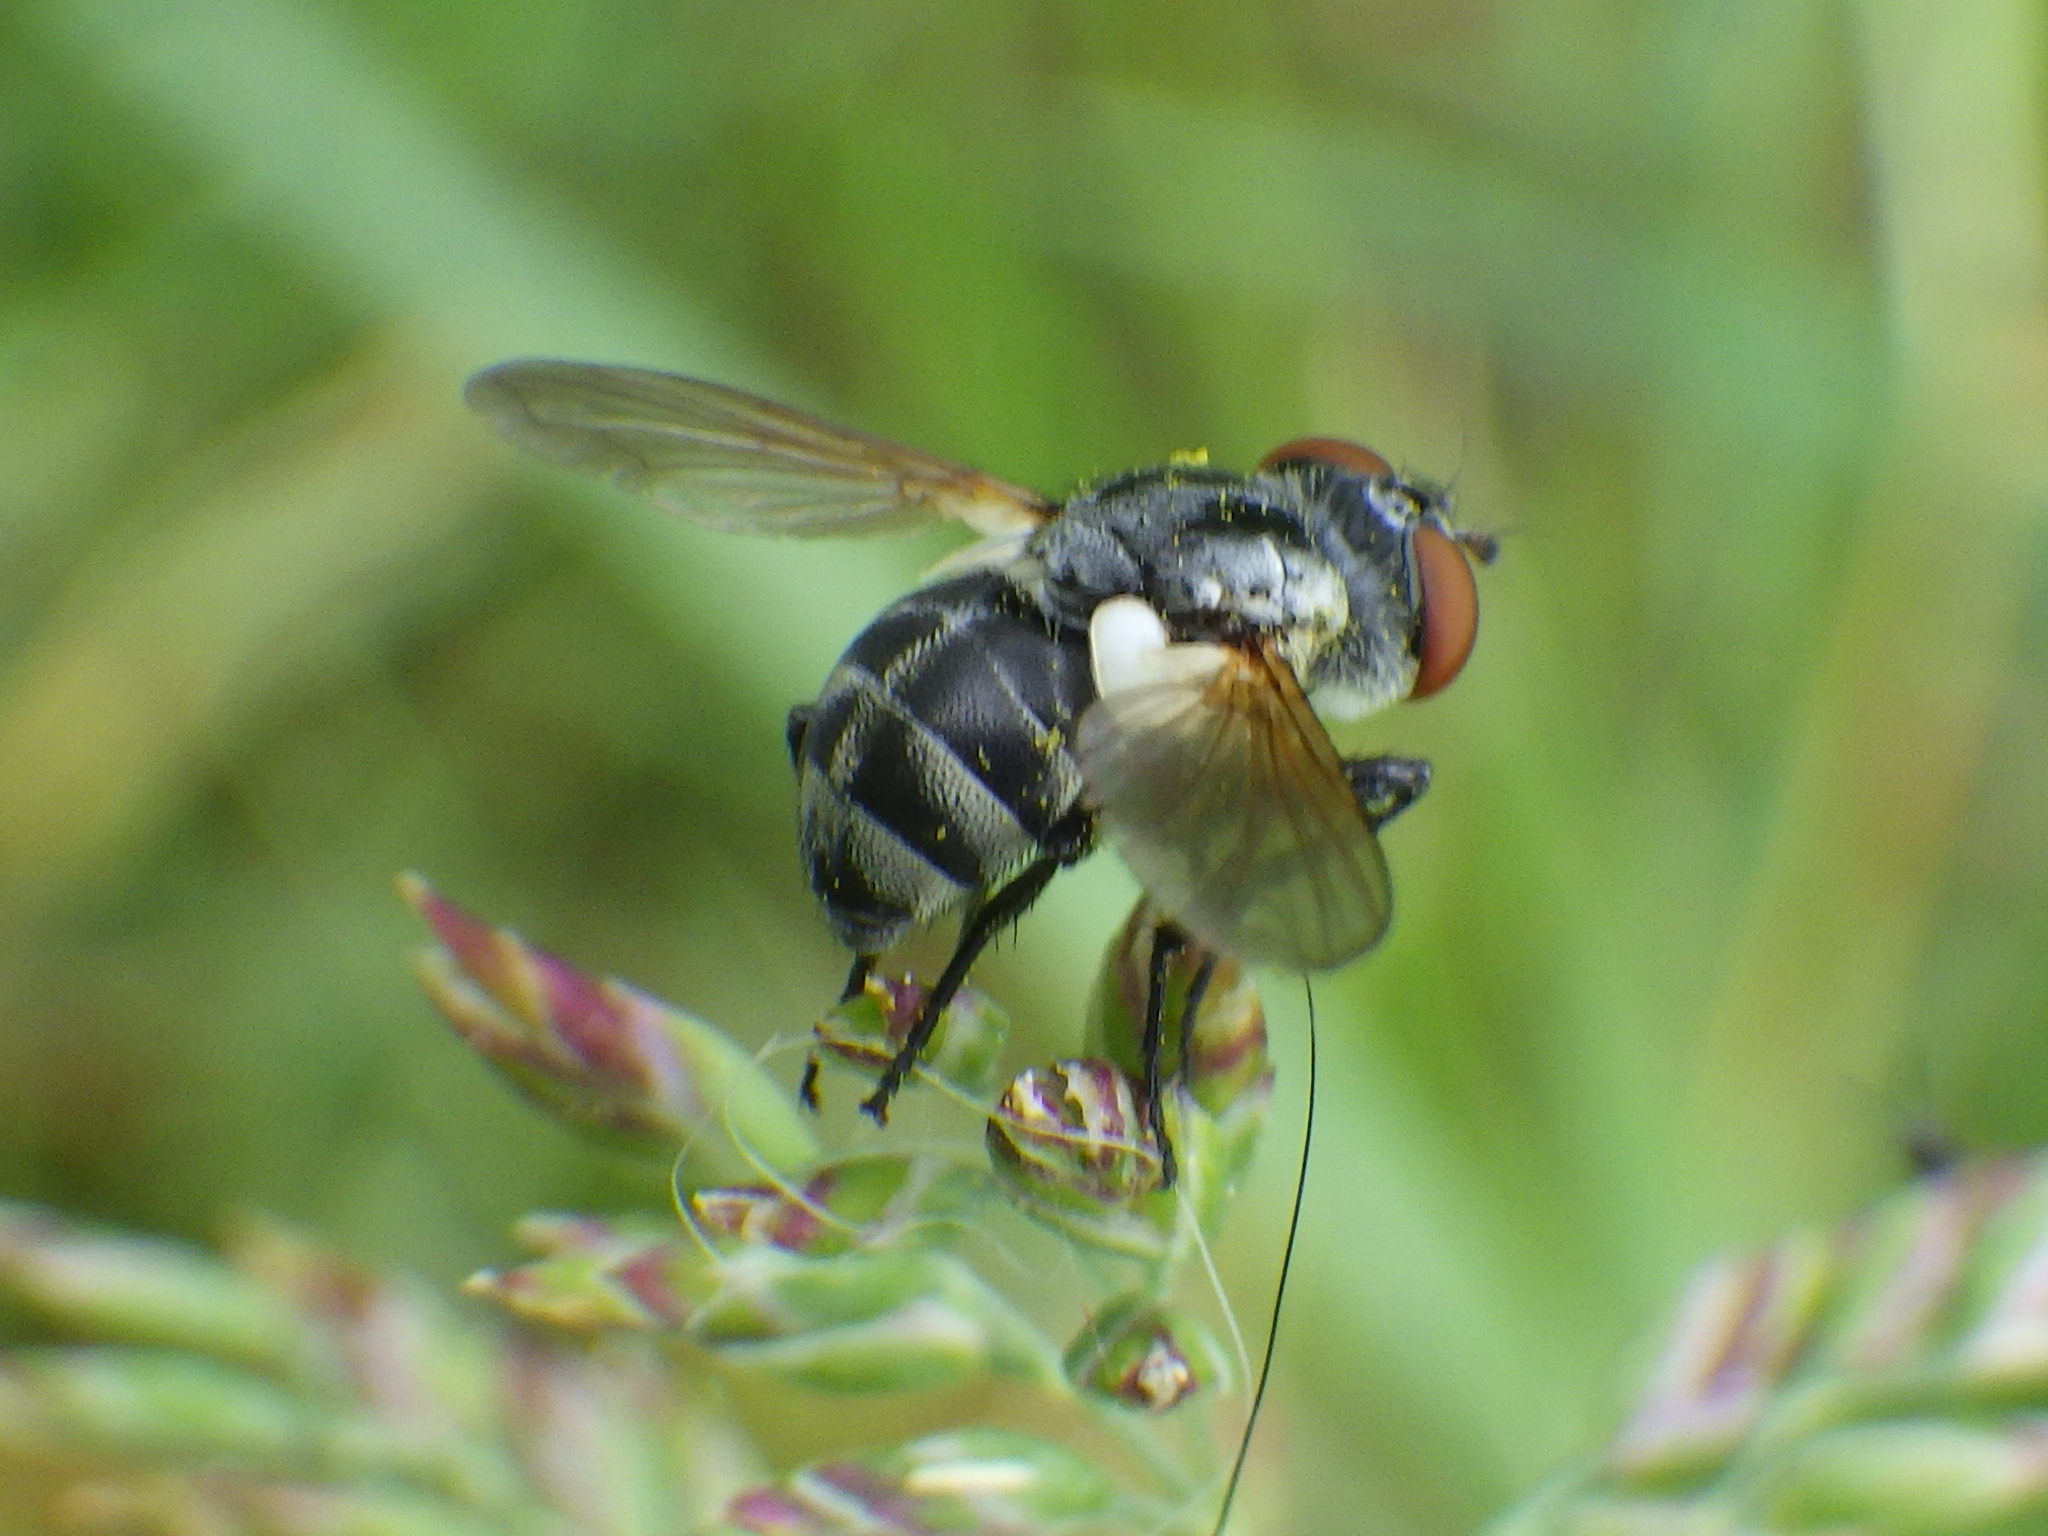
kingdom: Animalia
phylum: Arthropoda
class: Insecta
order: Diptera
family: Tachinidae
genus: Gymnoclytia
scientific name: Gymnoclytia occidua
